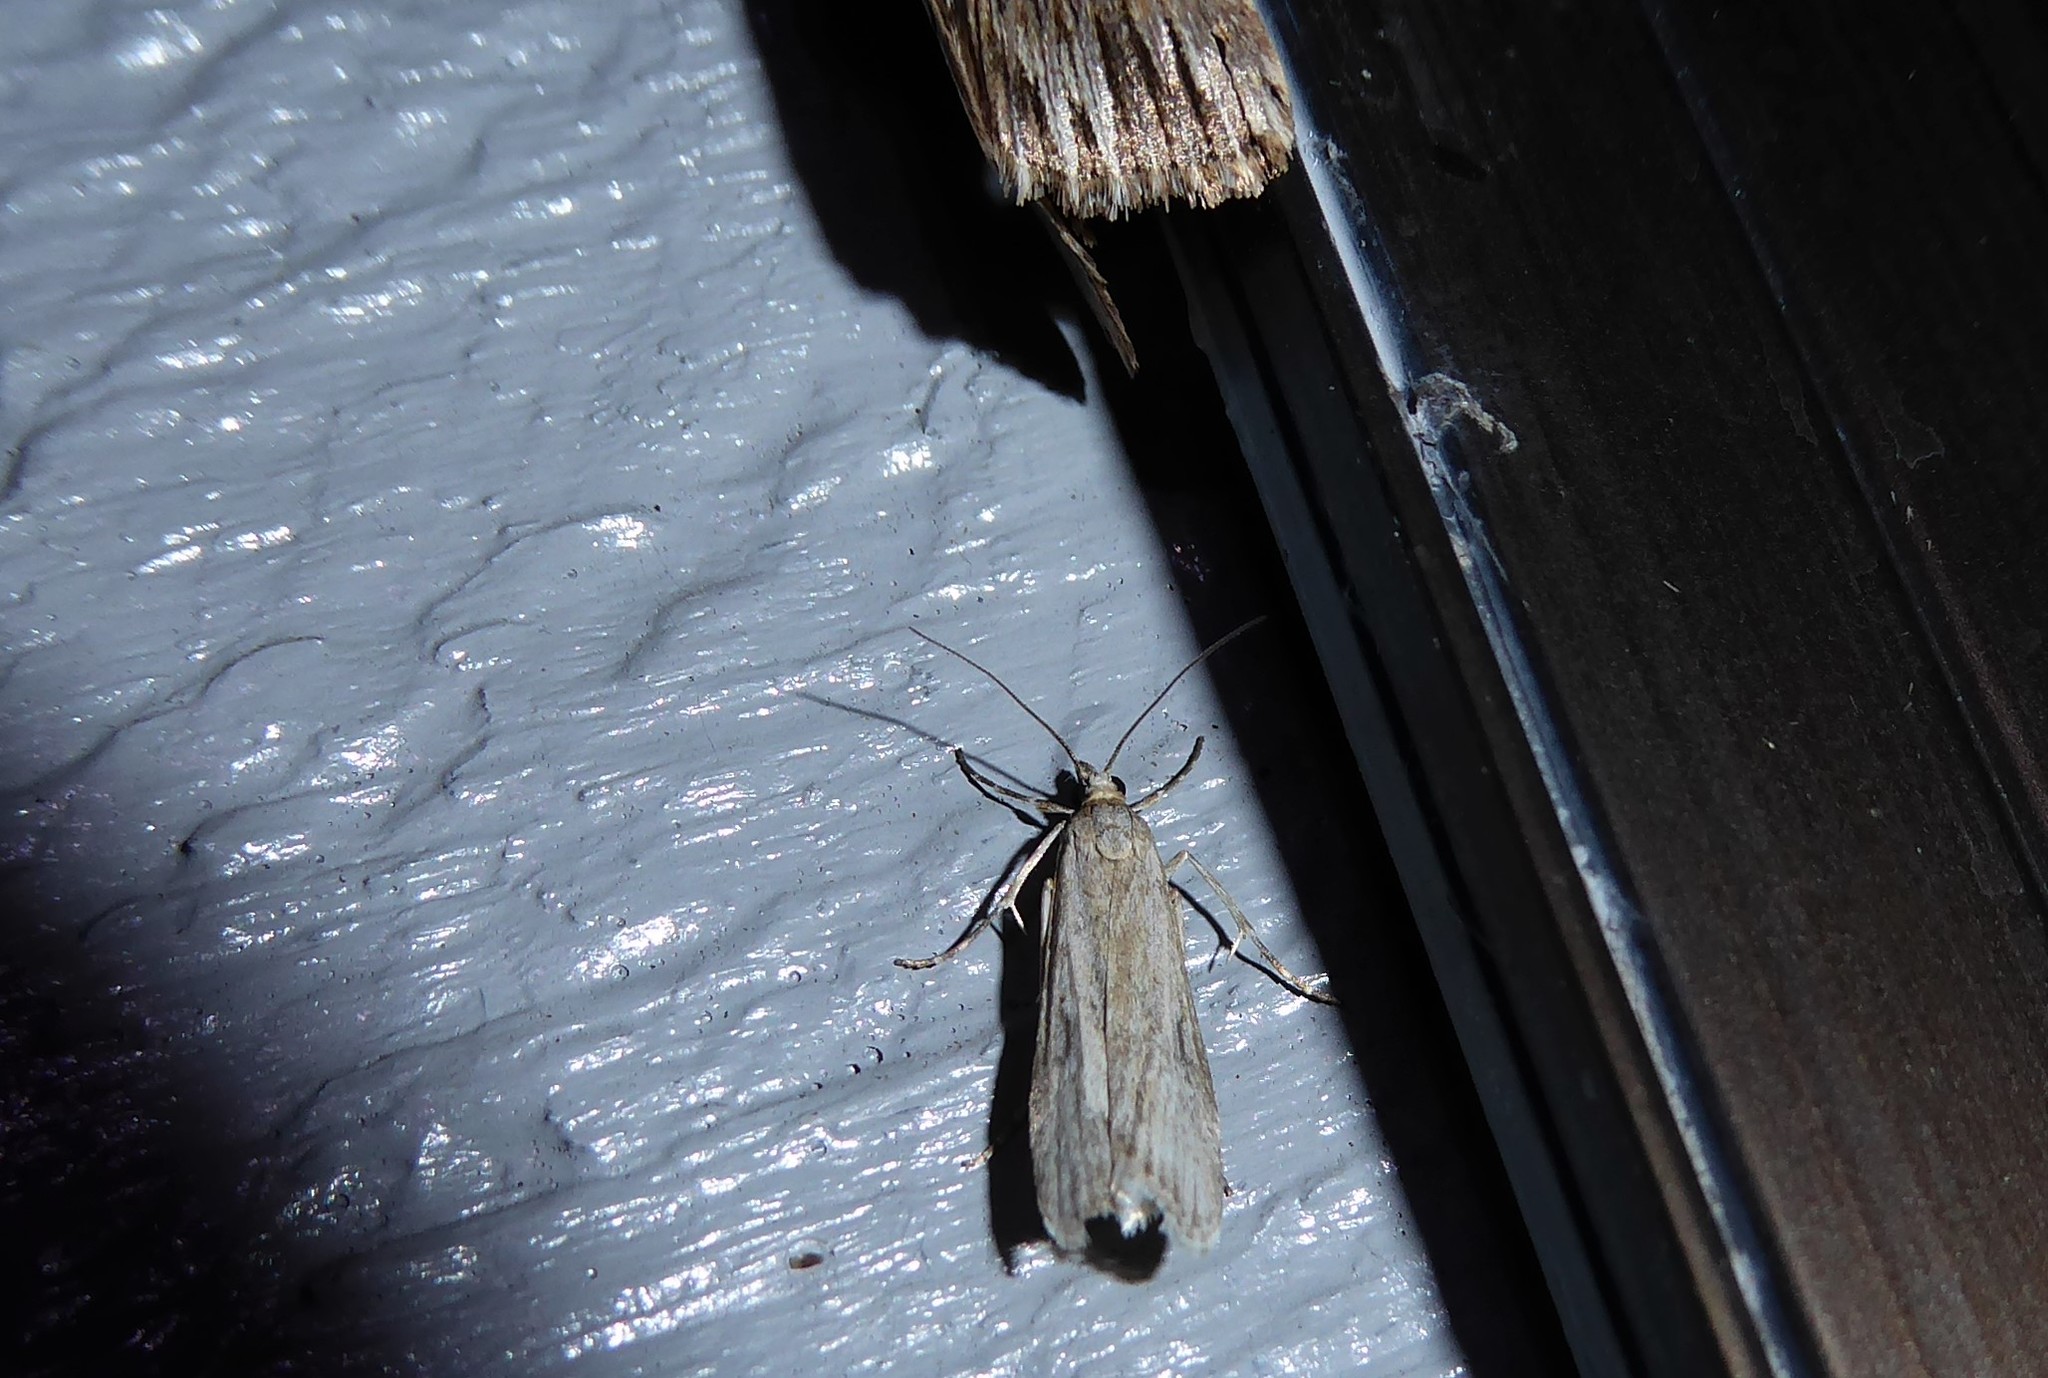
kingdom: Animalia
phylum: Arthropoda
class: Insecta
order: Lepidoptera
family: Crambidae
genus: Eudonia
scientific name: Eudonia leptalea
